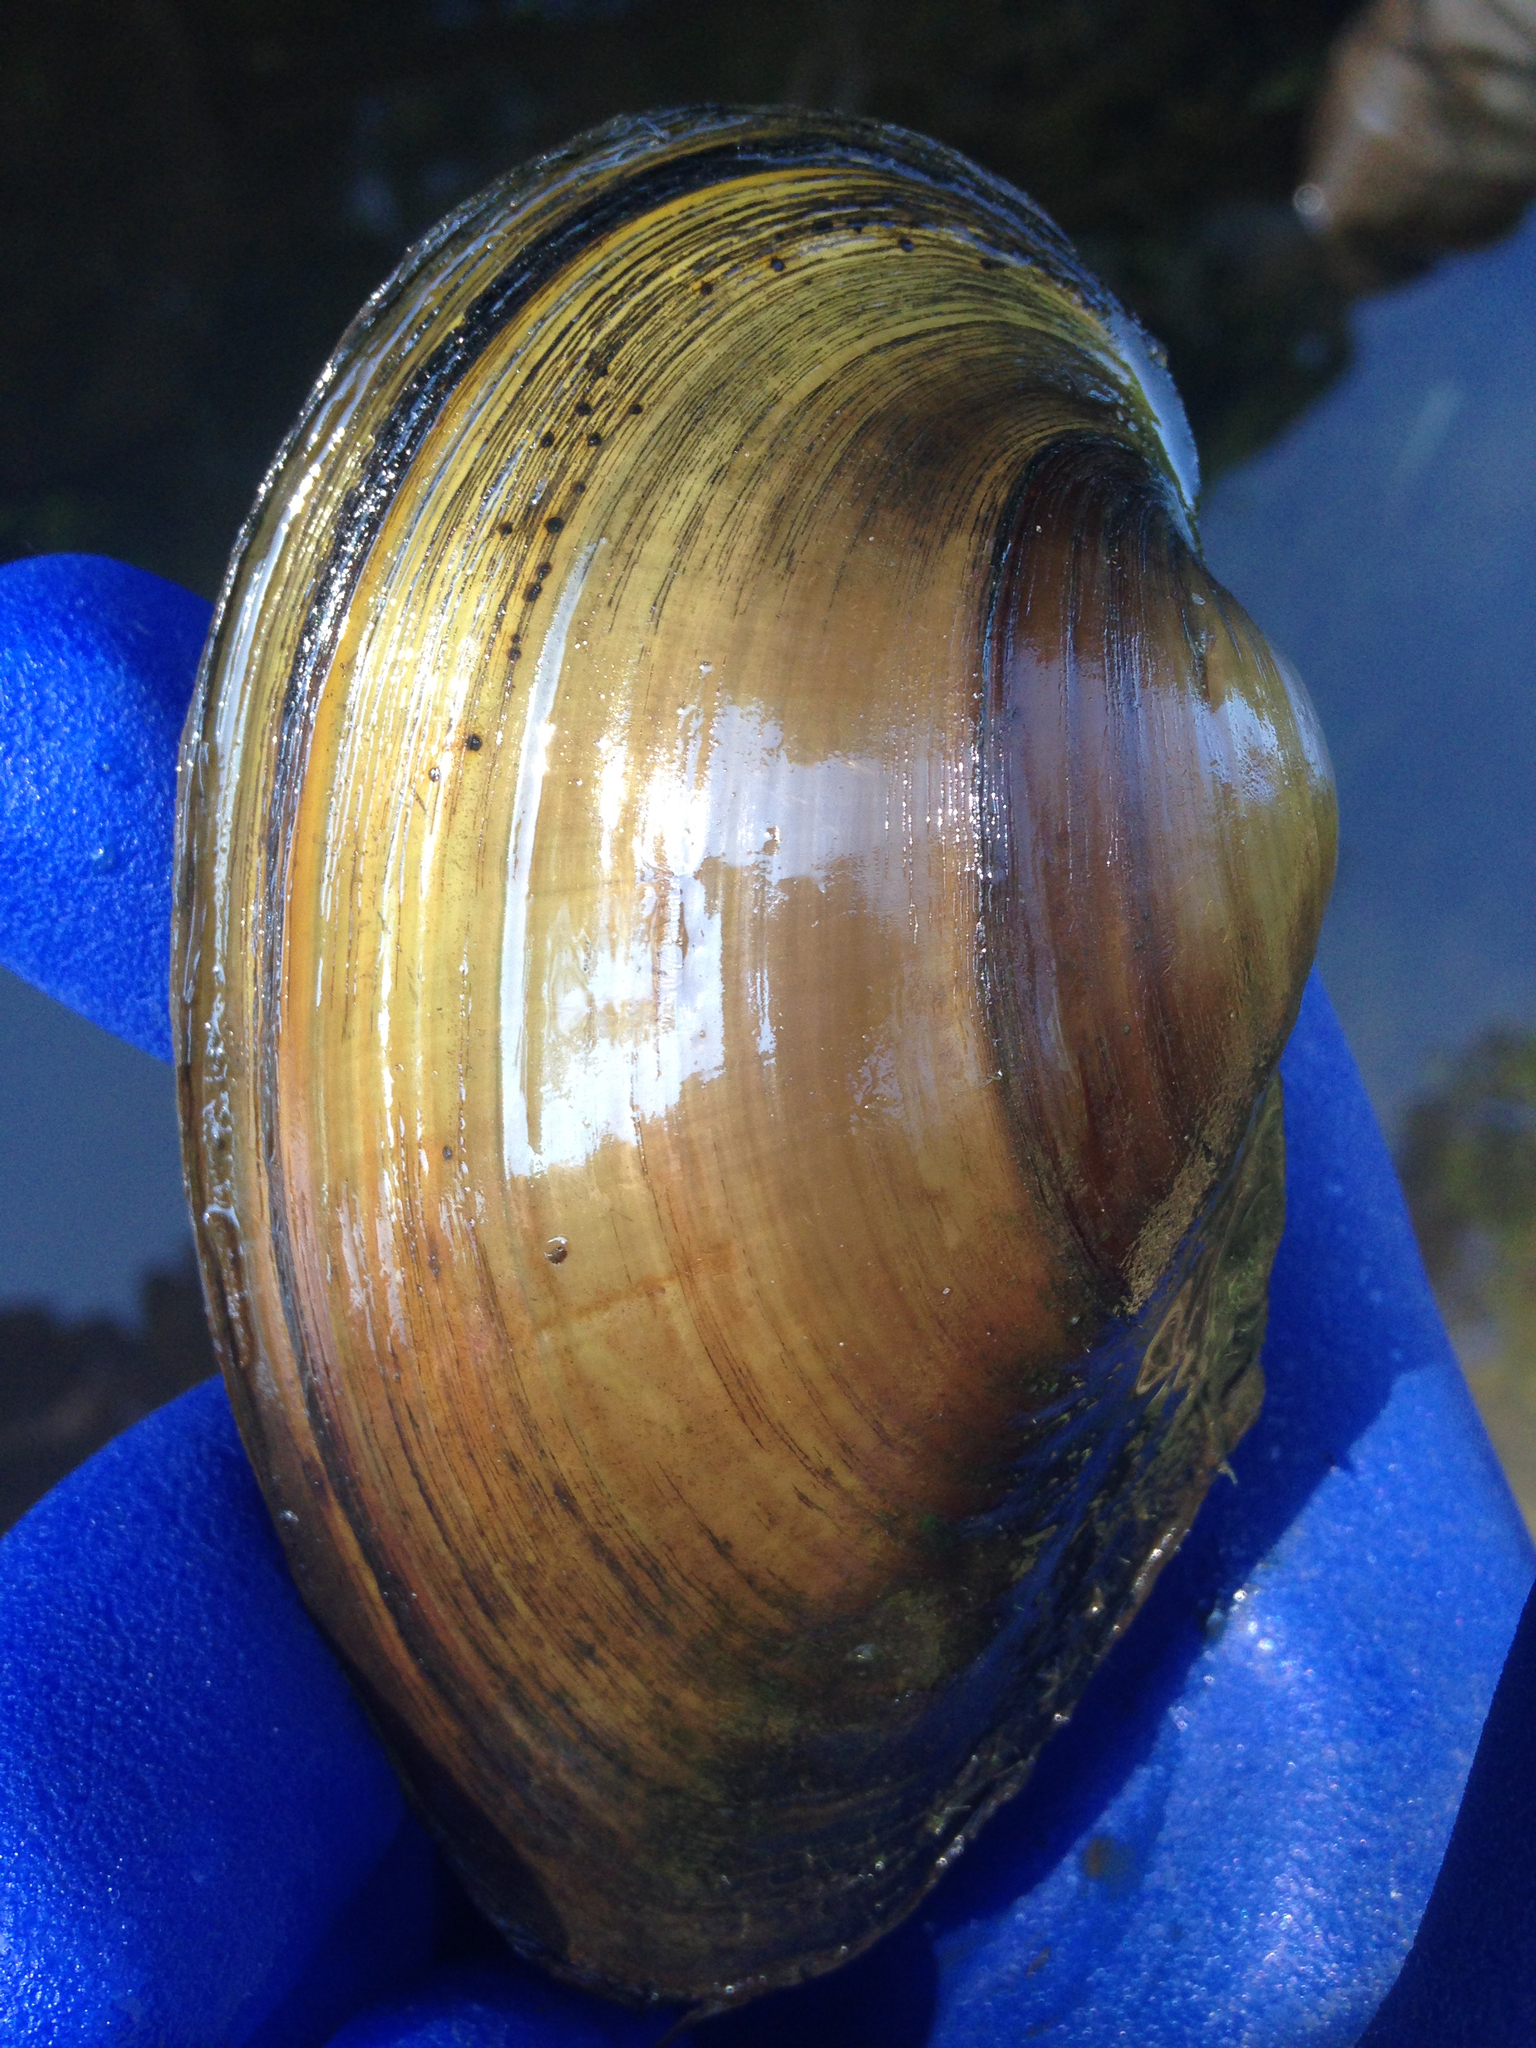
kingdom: Animalia
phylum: Mollusca
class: Bivalvia
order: Unionida
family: Unionidae
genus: Pyganodon
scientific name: Pyganodon grandis
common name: Giant floater
